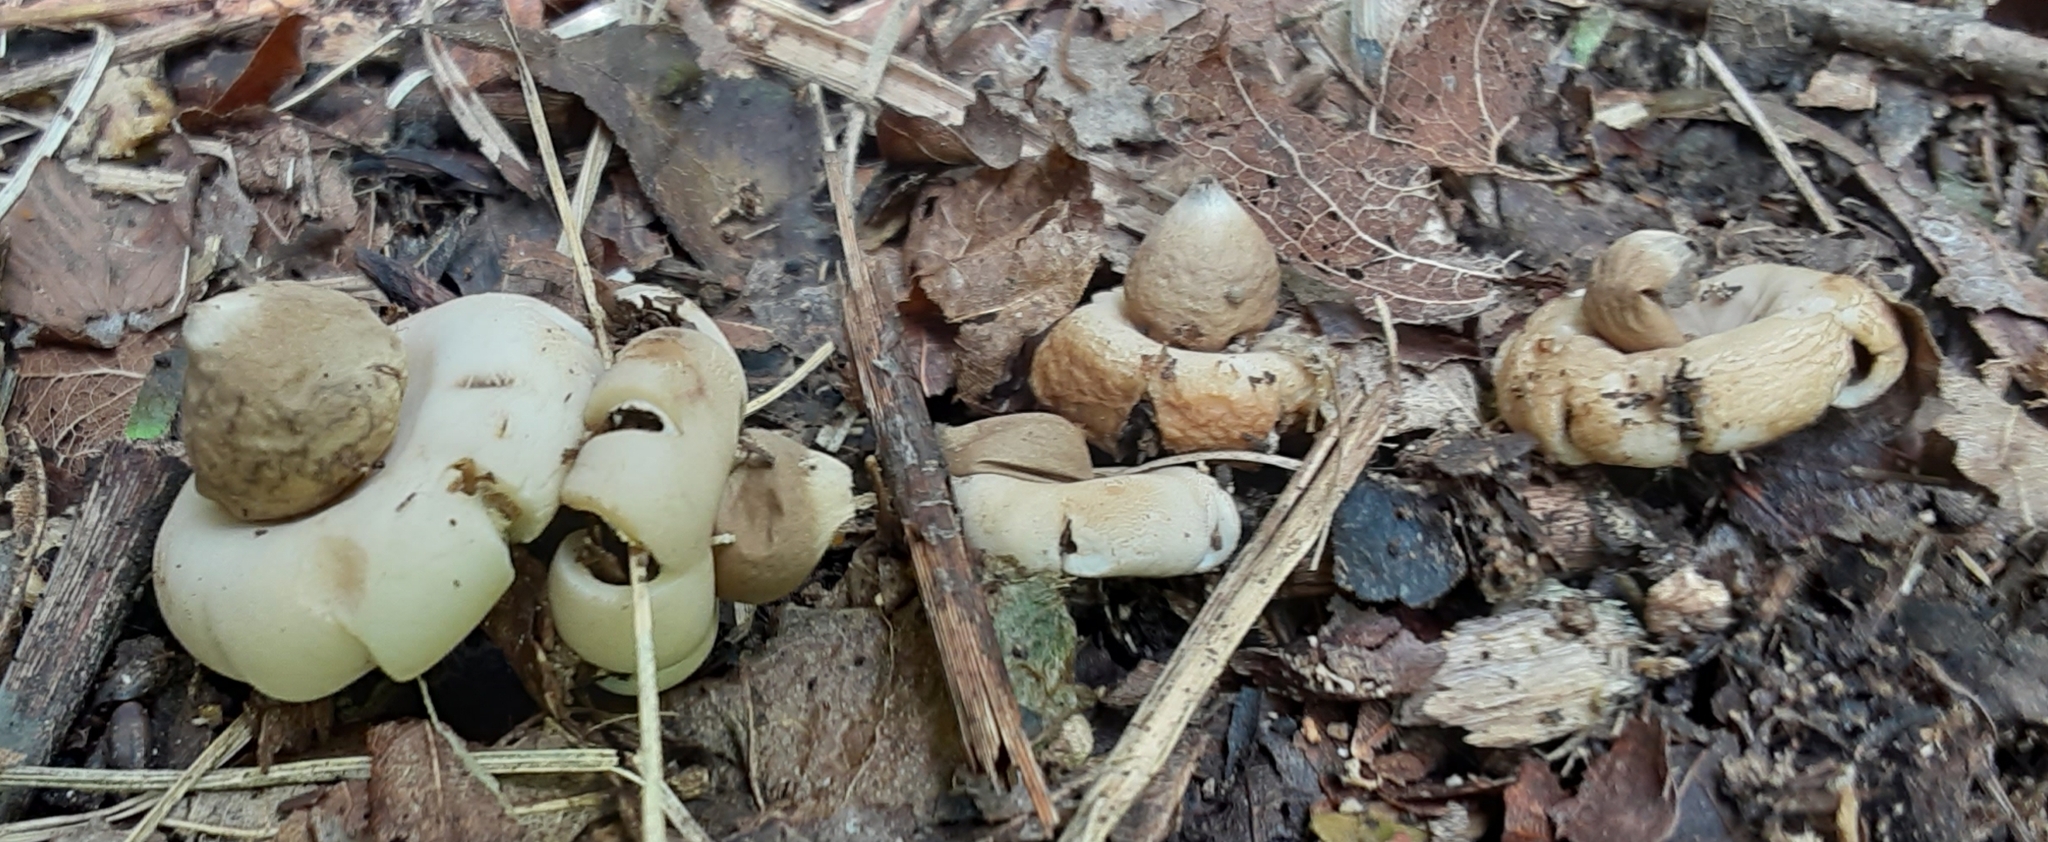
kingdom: Fungi
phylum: Basidiomycota
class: Agaricomycetes
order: Geastrales
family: Geastraceae
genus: Geastrum
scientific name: Geastrum saccatum
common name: Rounded earthstar
